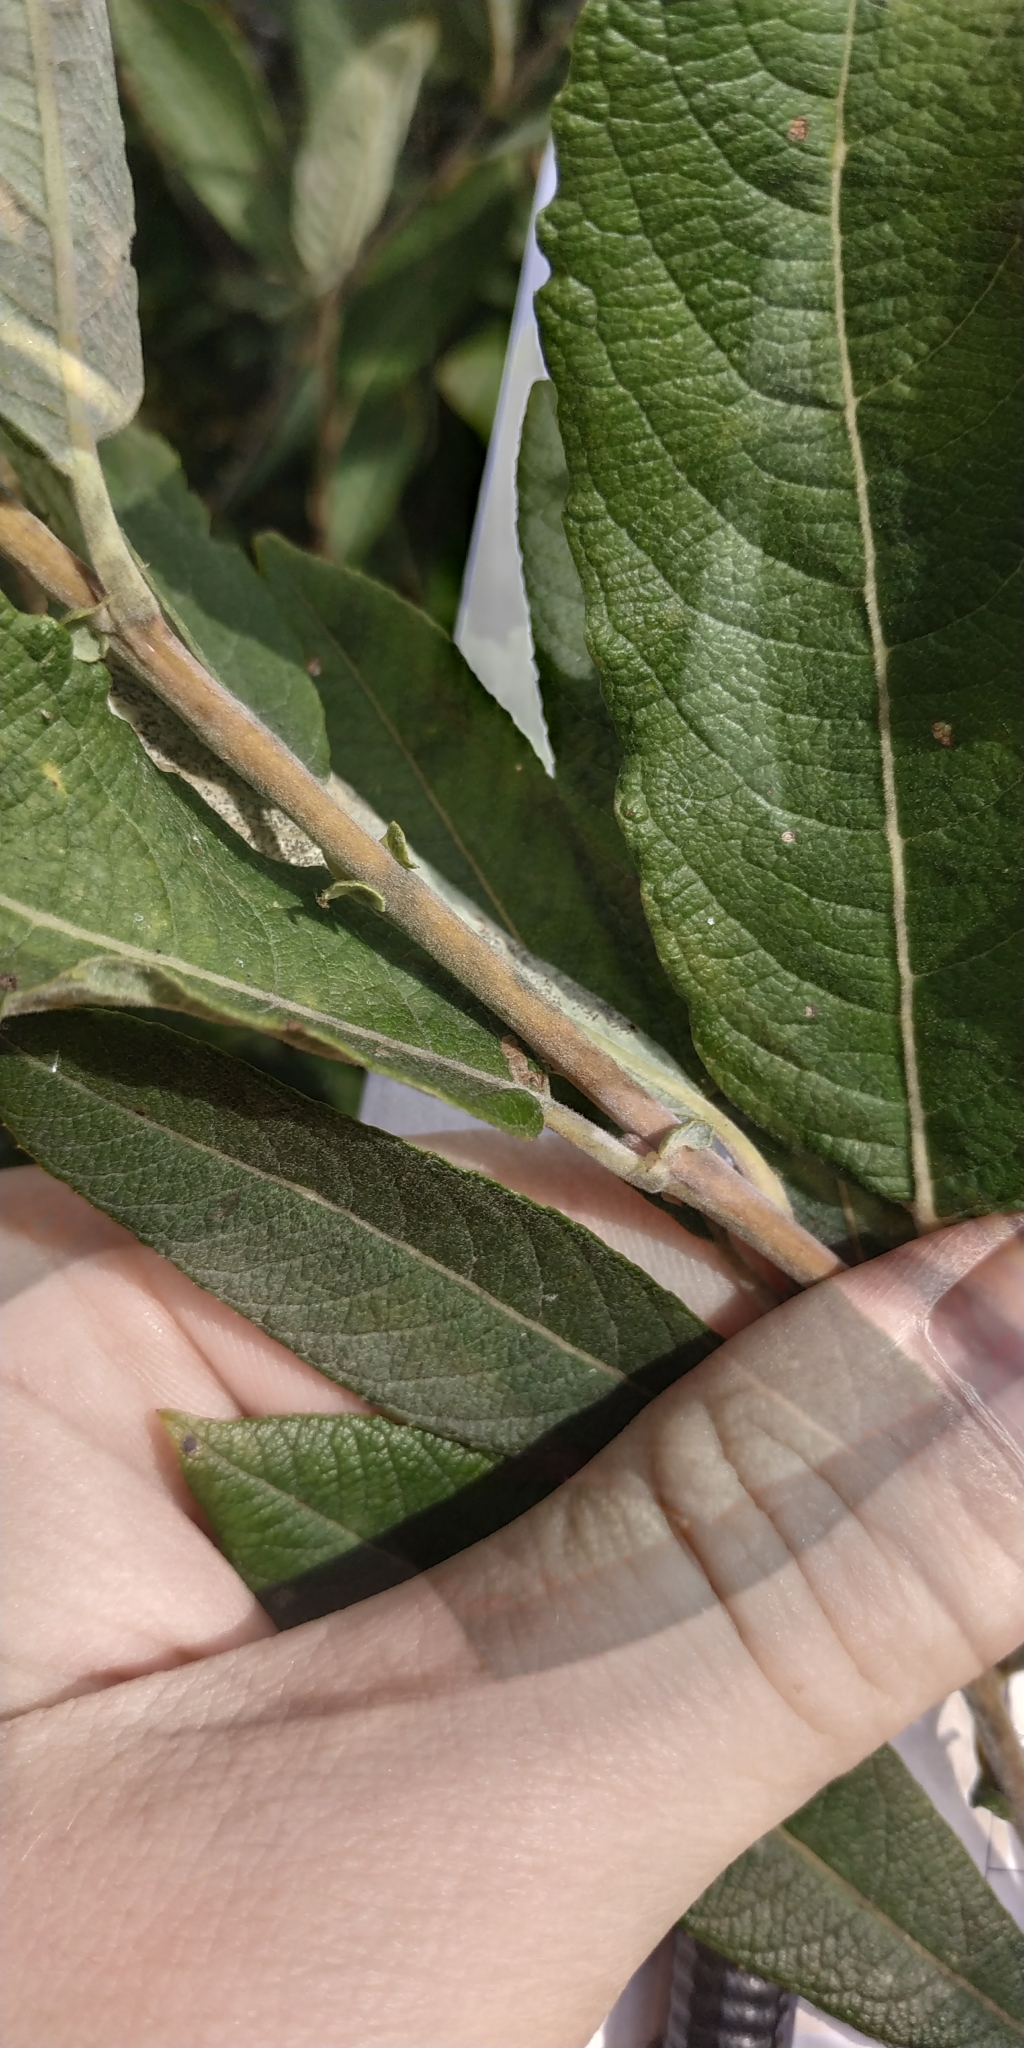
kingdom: Plantae
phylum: Tracheophyta
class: Magnoliopsida
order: Malpighiales
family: Salicaceae
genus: Salix
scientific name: Salix cinerea
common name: Common sallow
